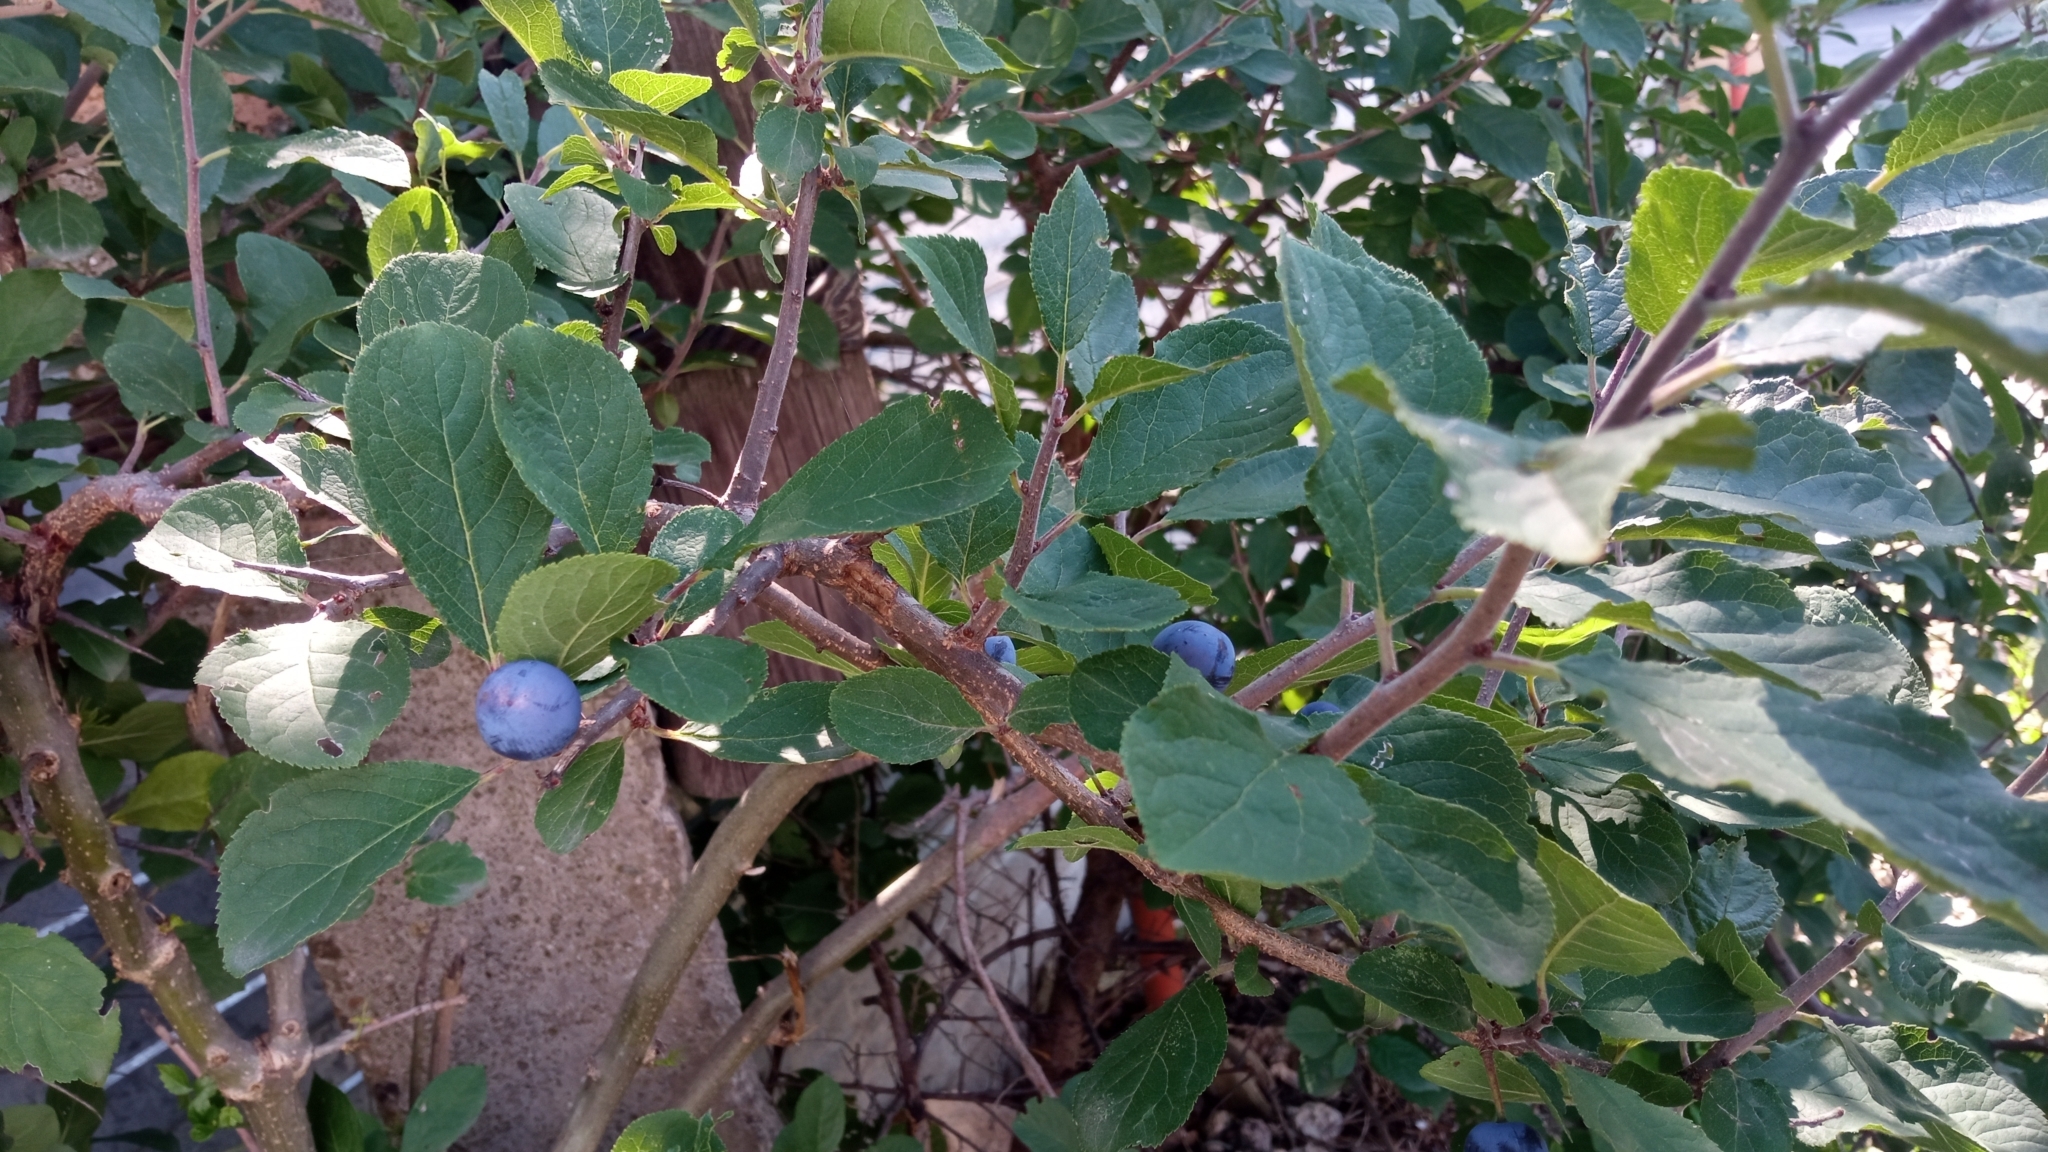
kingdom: Plantae
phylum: Tracheophyta
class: Magnoliopsida
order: Rosales
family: Rosaceae
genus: Prunus
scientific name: Prunus spinosa
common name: Blackthorn
